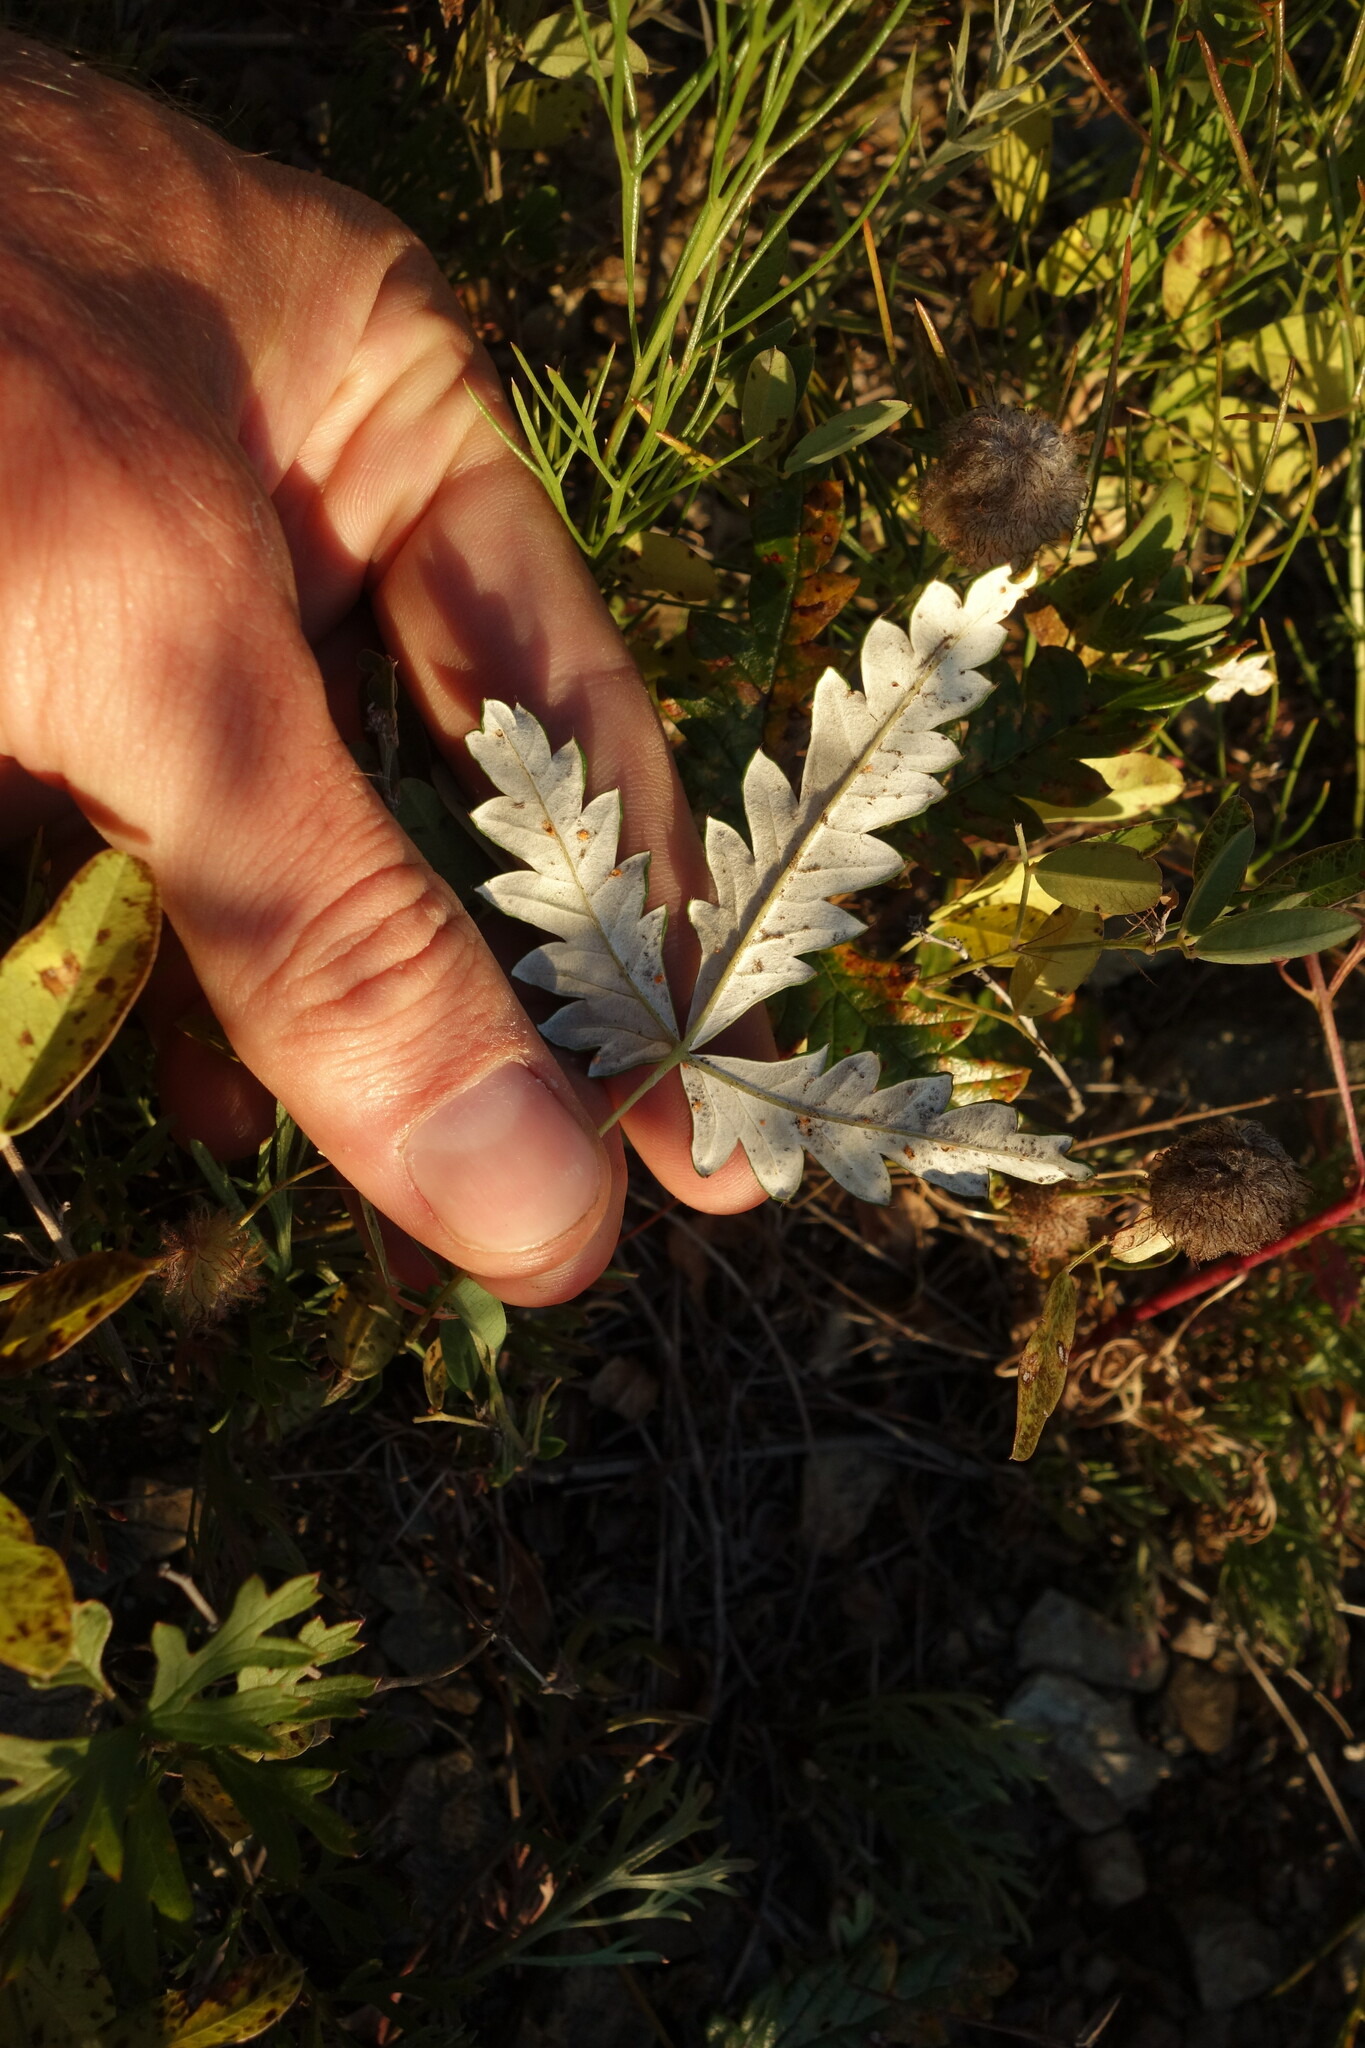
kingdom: Plantae
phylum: Tracheophyta
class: Magnoliopsida
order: Rosales
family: Rosaceae
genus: Potentilla
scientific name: Potentilla
